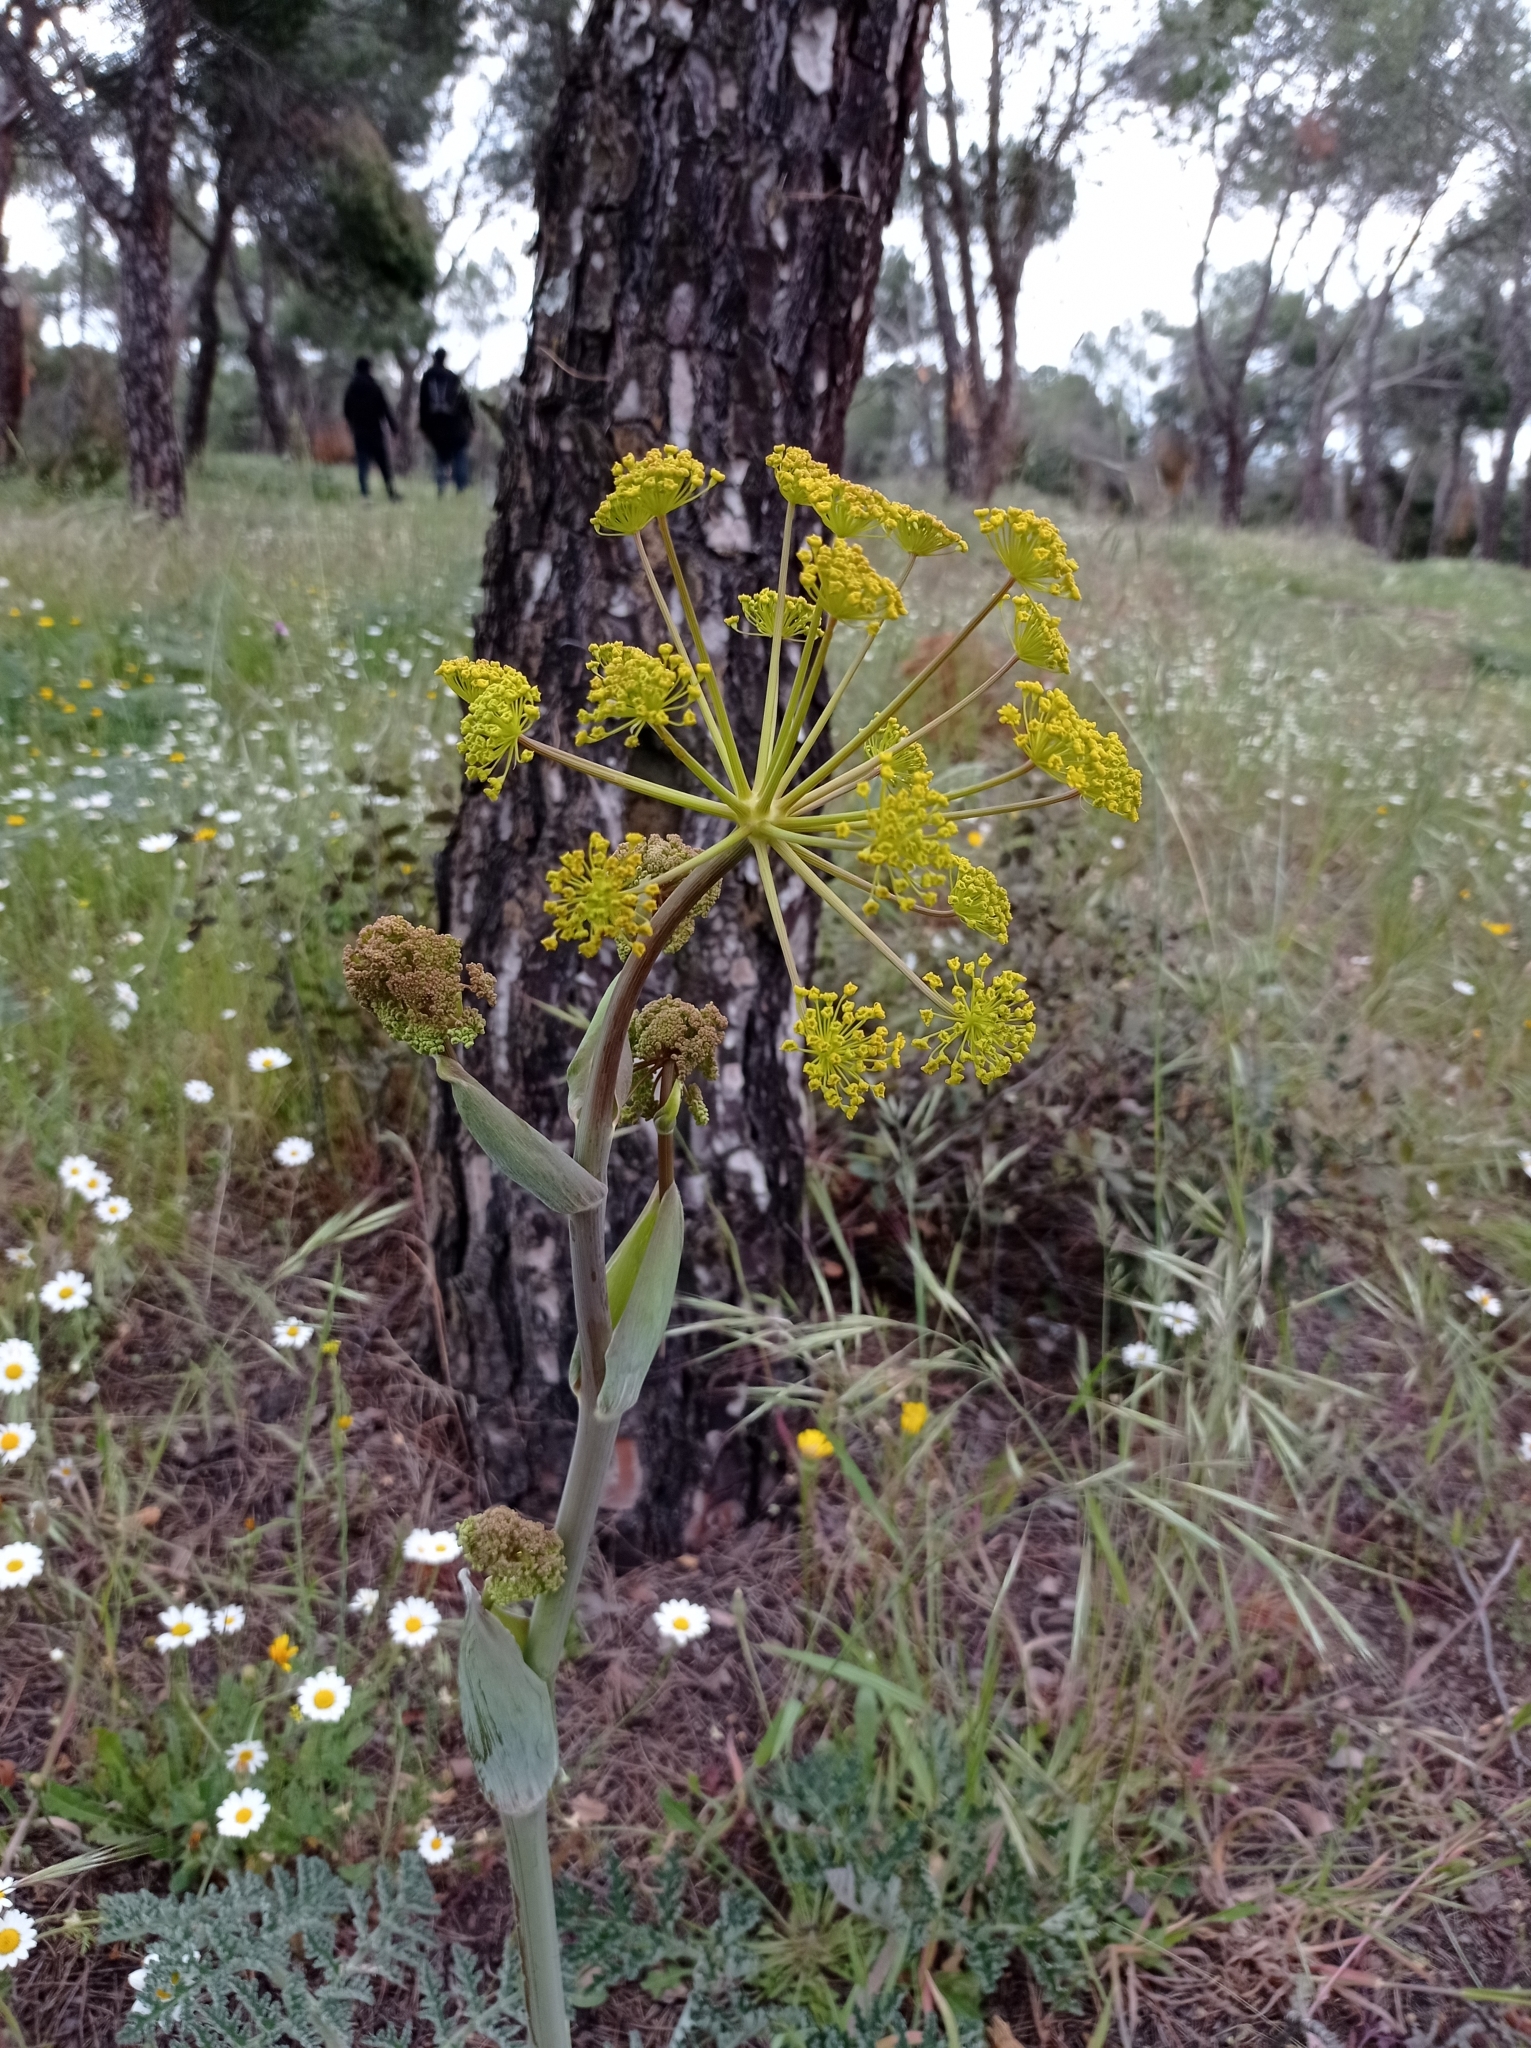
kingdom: Plantae
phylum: Tracheophyta
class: Magnoliopsida
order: Apiales
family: Apiaceae
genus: Thapsia
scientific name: Thapsia villosa
